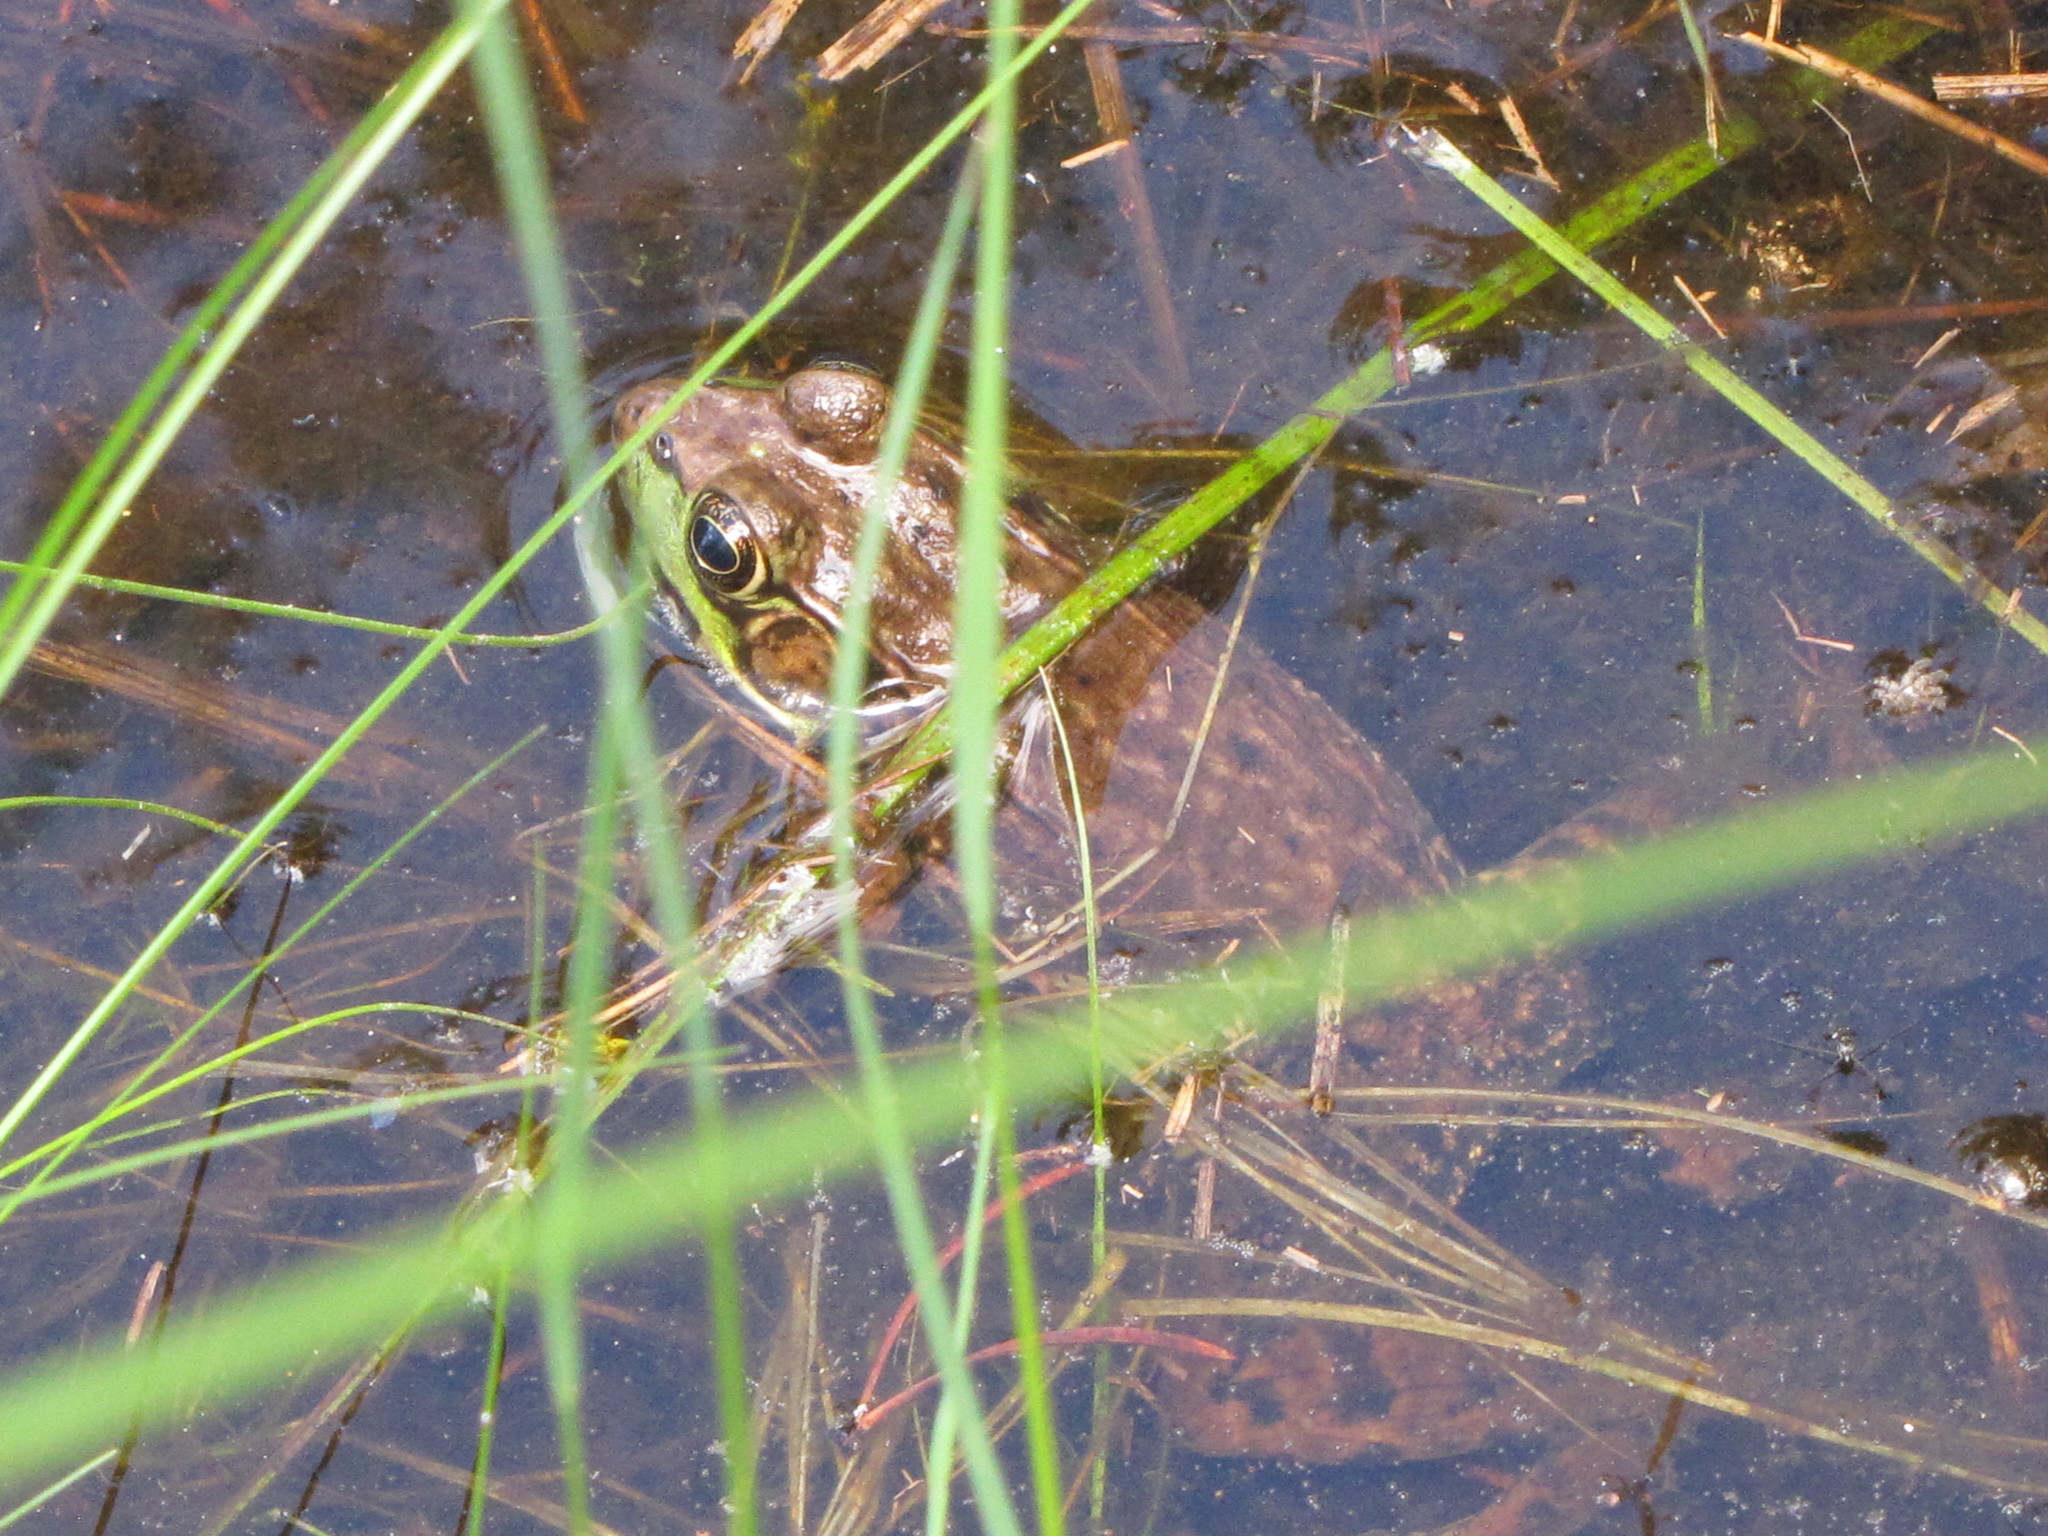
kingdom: Animalia
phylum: Chordata
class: Amphibia
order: Anura
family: Ranidae
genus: Lithobates
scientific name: Lithobates clamitans
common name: Green frog
